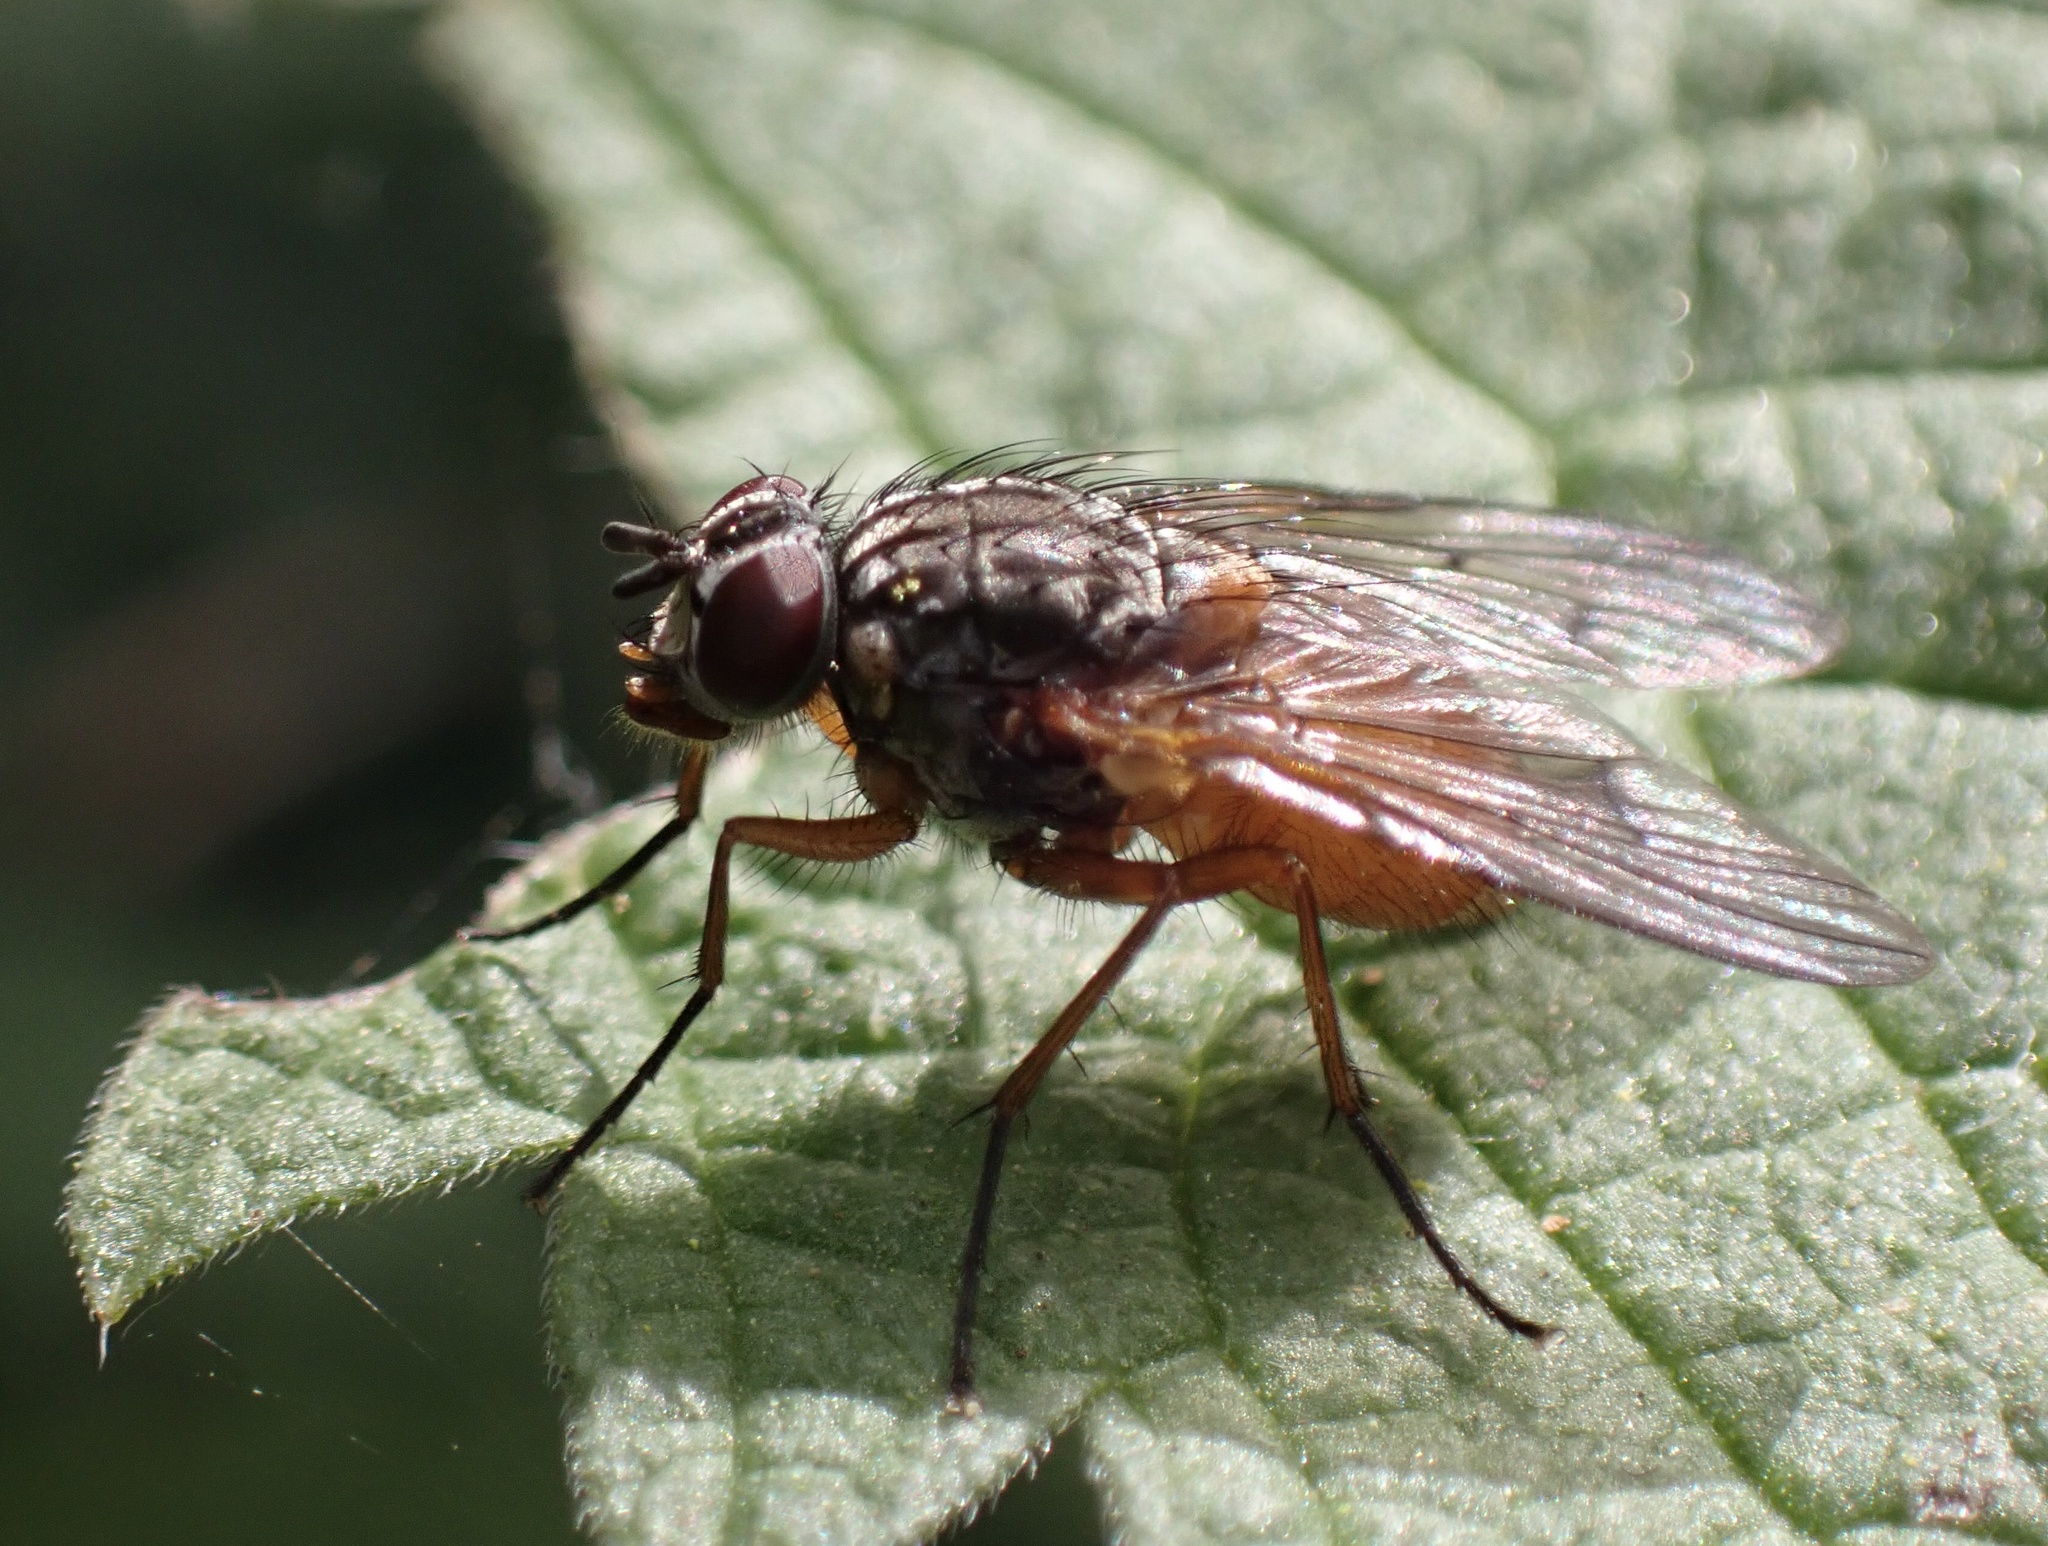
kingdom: Animalia
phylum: Arthropoda
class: Insecta
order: Diptera
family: Muscidae
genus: Phaonia
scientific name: Phaonia subventa
